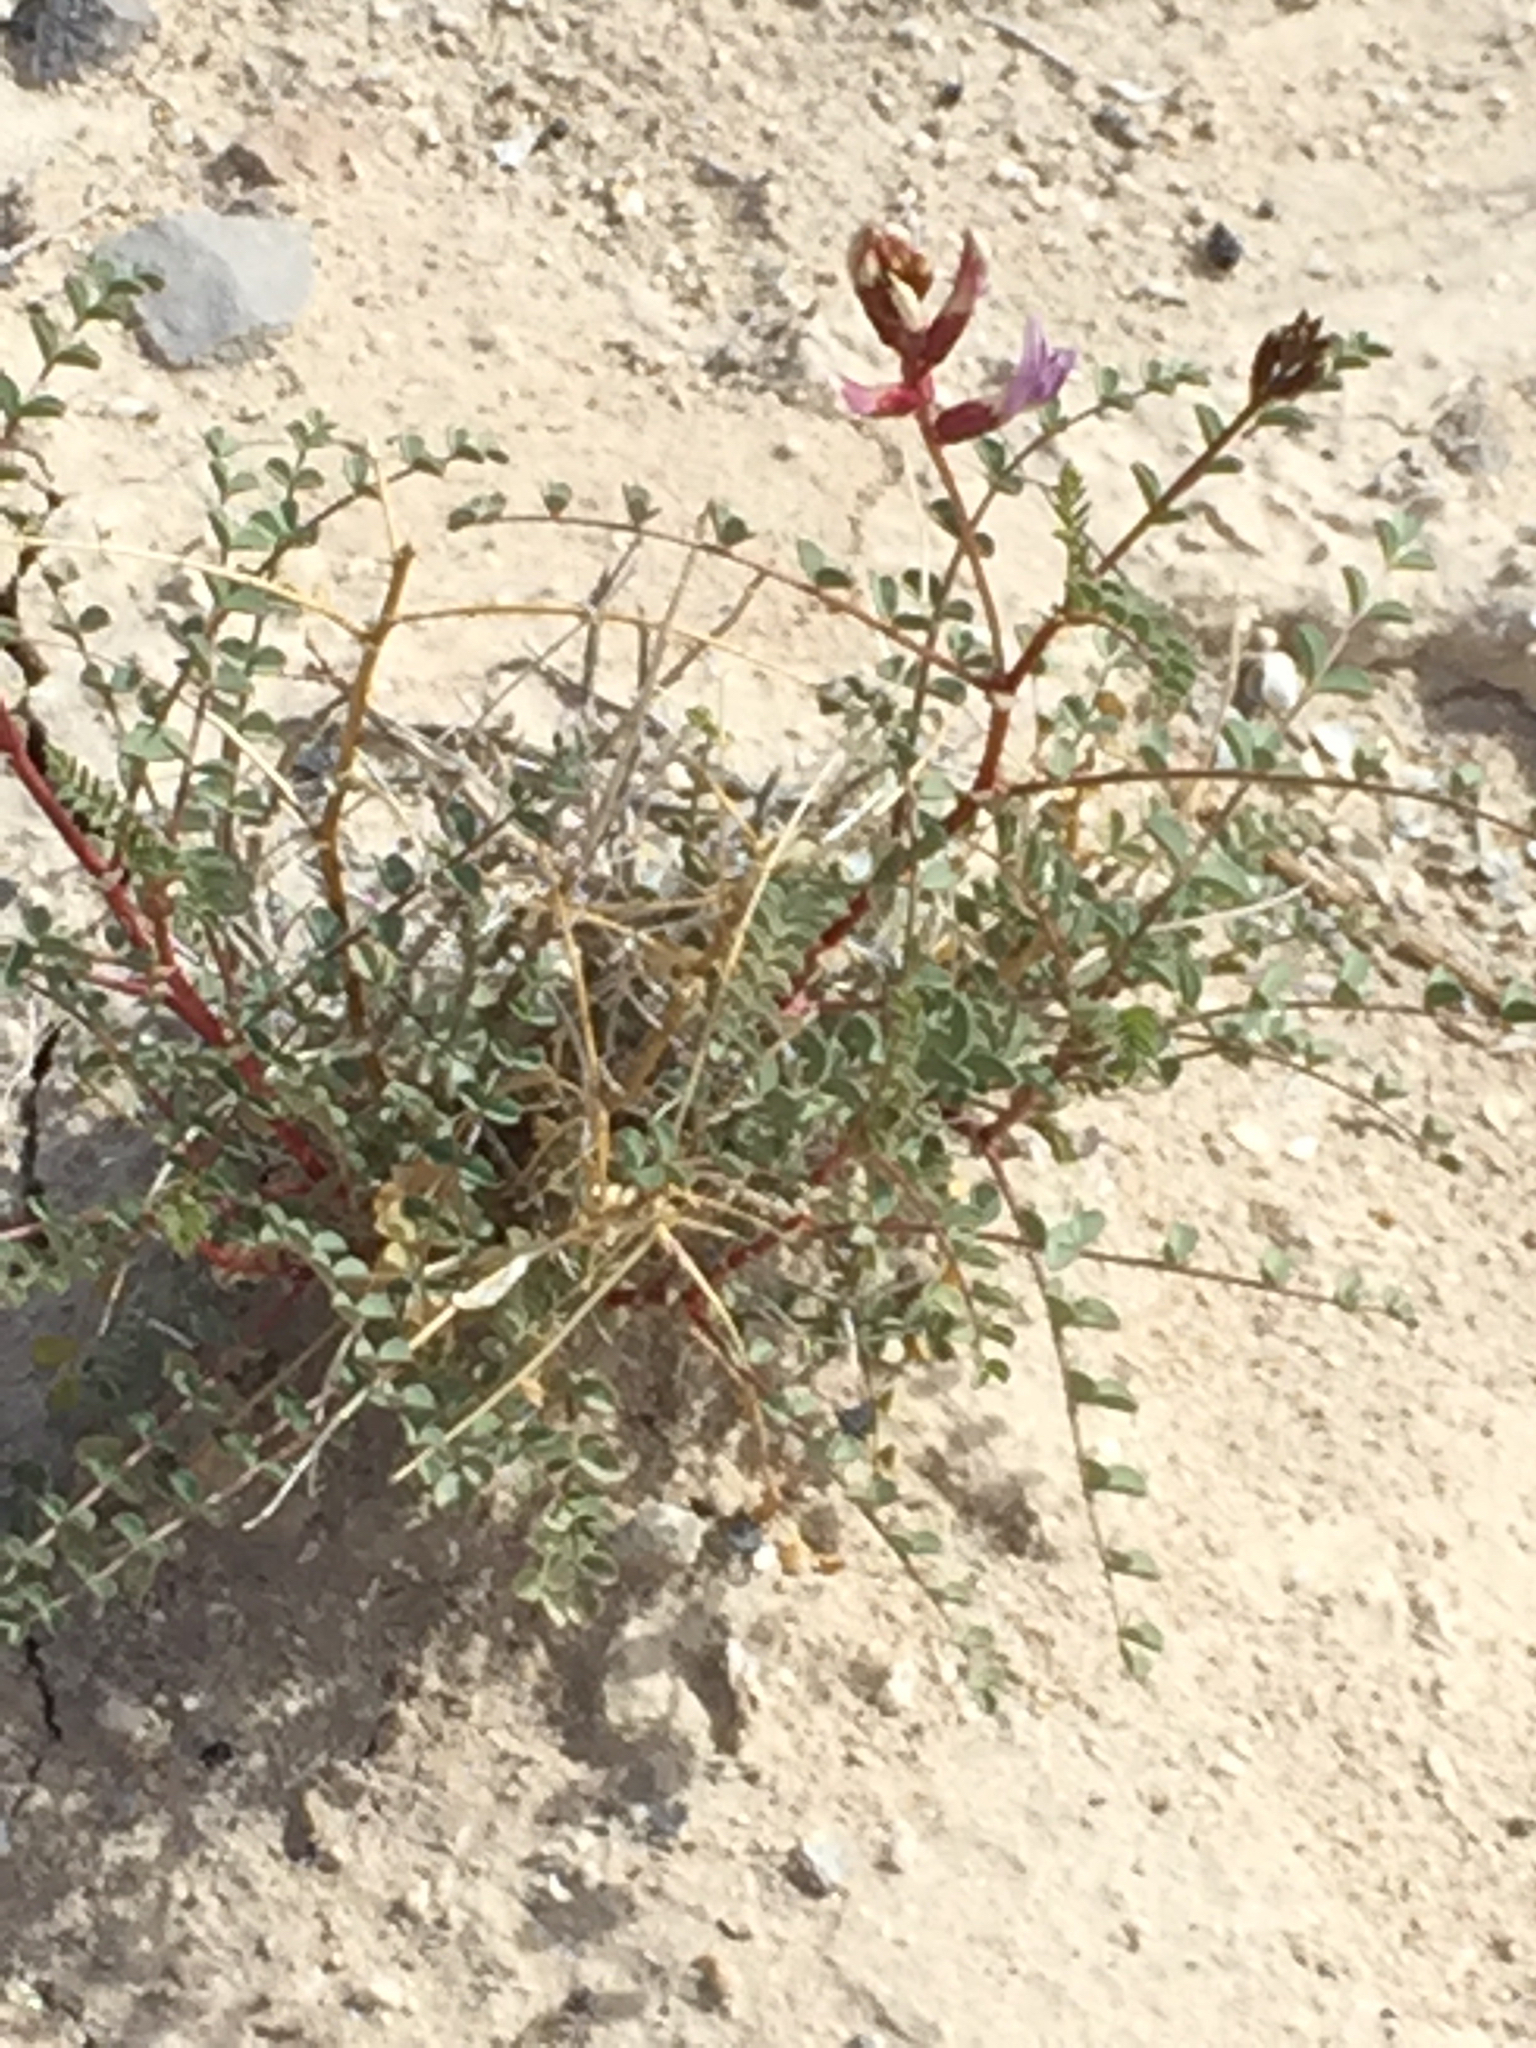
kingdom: Plantae
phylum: Tracheophyta
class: Magnoliopsida
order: Fabales
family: Fabaceae
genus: Astragalus
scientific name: Astragalus preussii
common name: Preuss's milk-vetch
